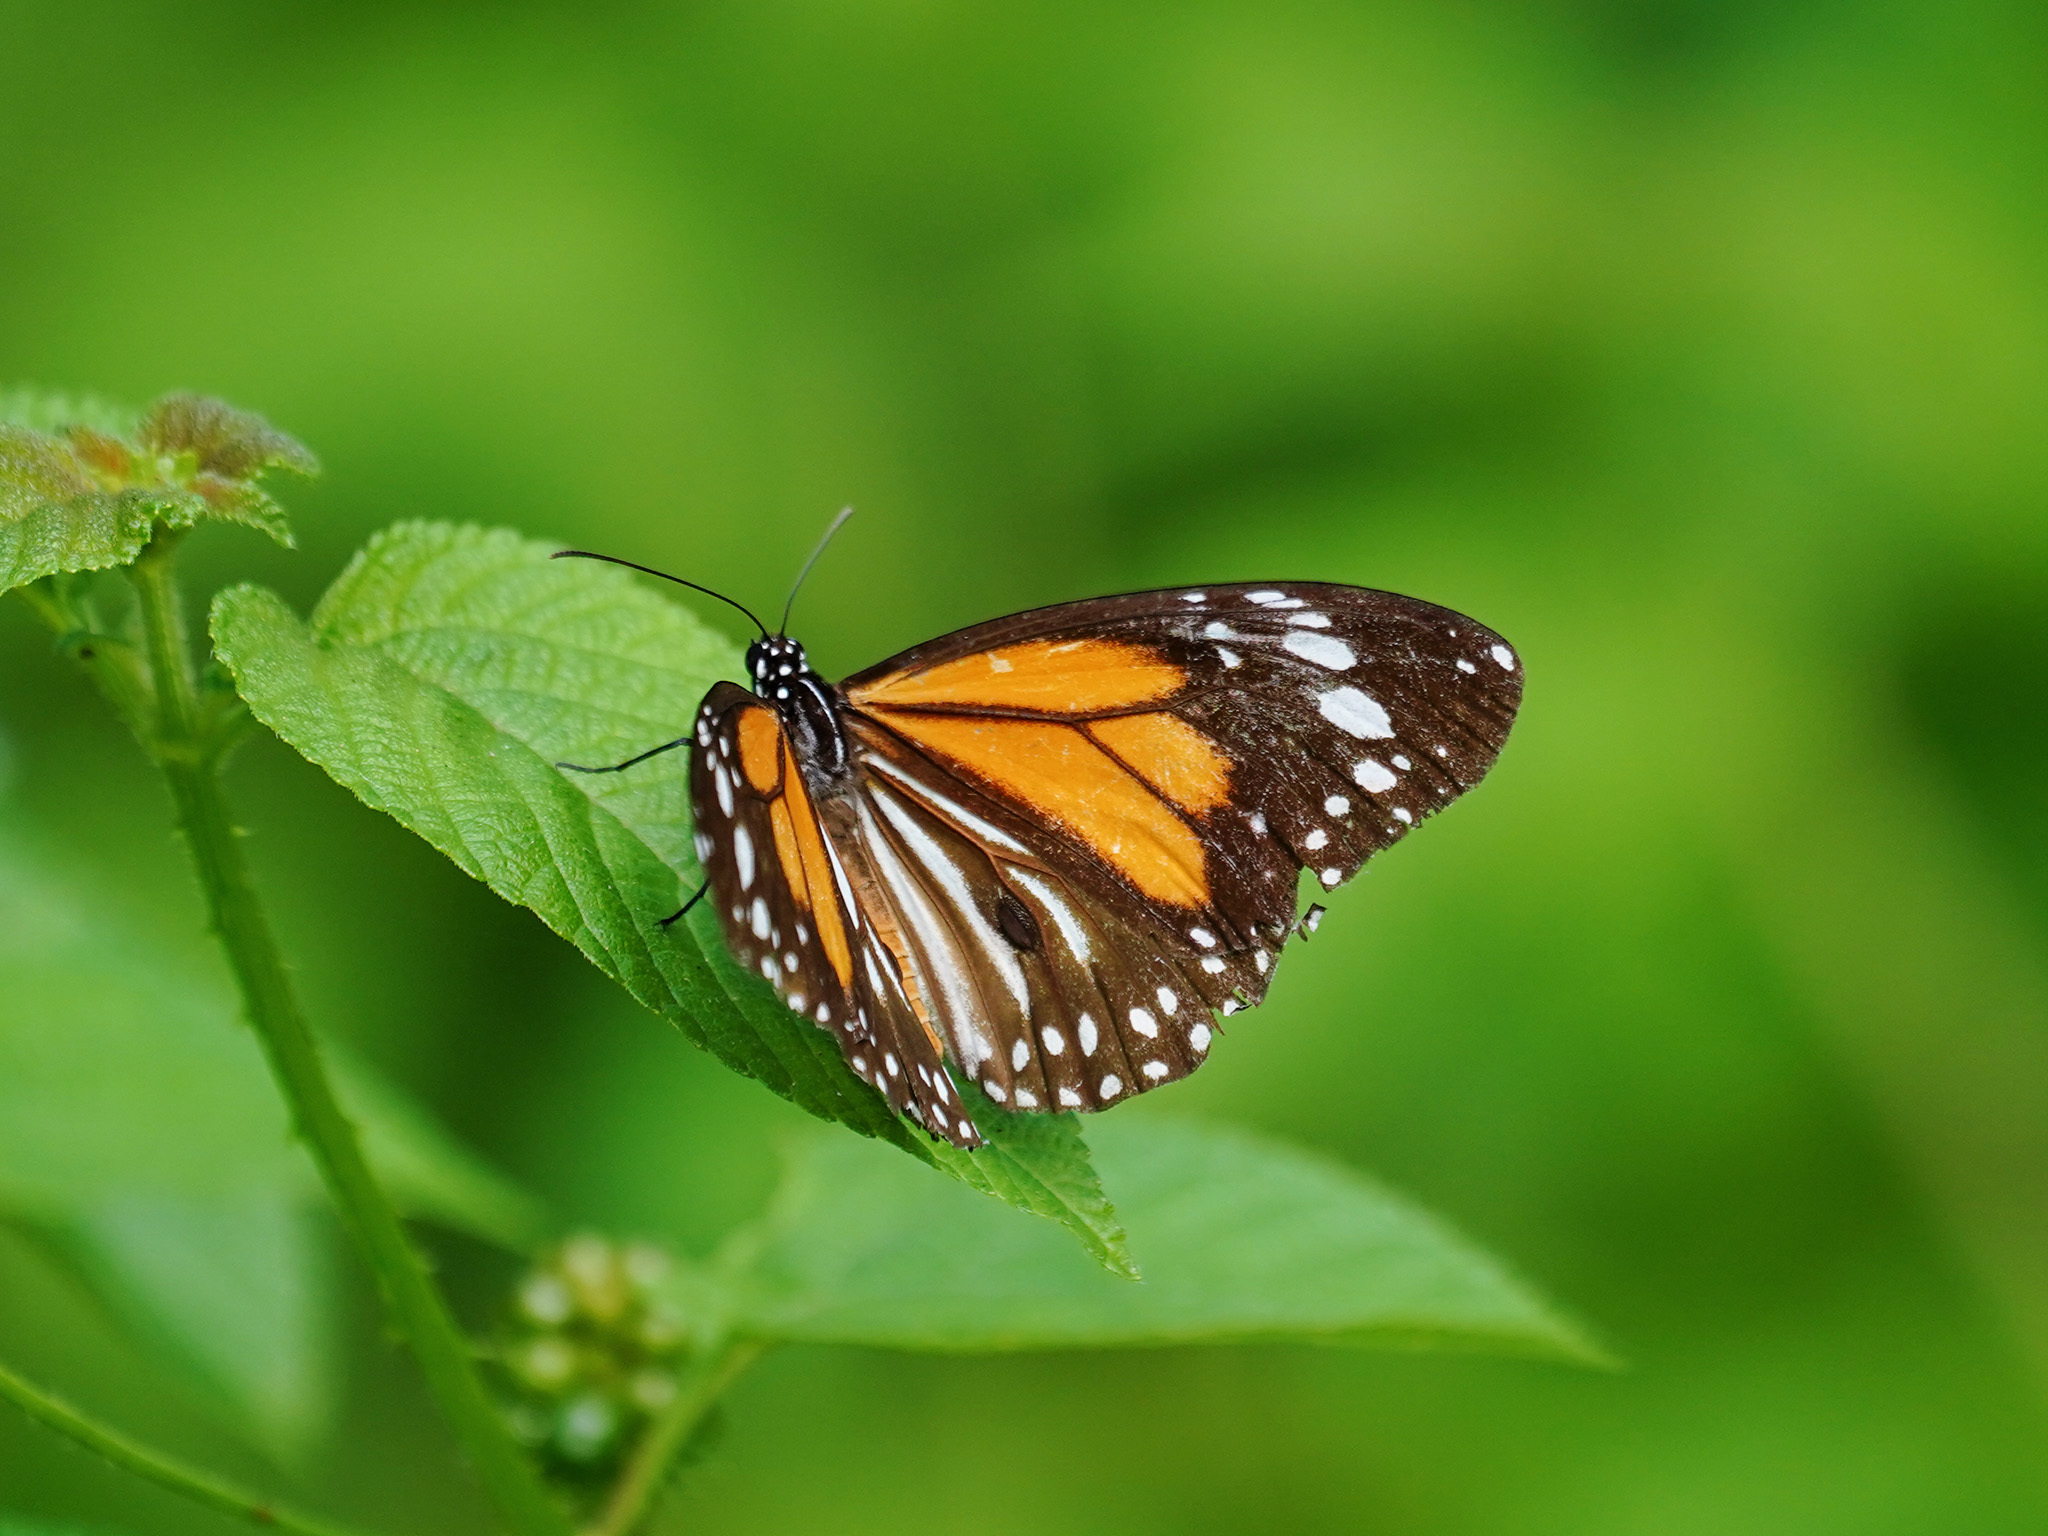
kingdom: Animalia
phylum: Arthropoda
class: Insecta
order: Lepidoptera
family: Nymphalidae
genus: Danaus
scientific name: Danaus melanippus
